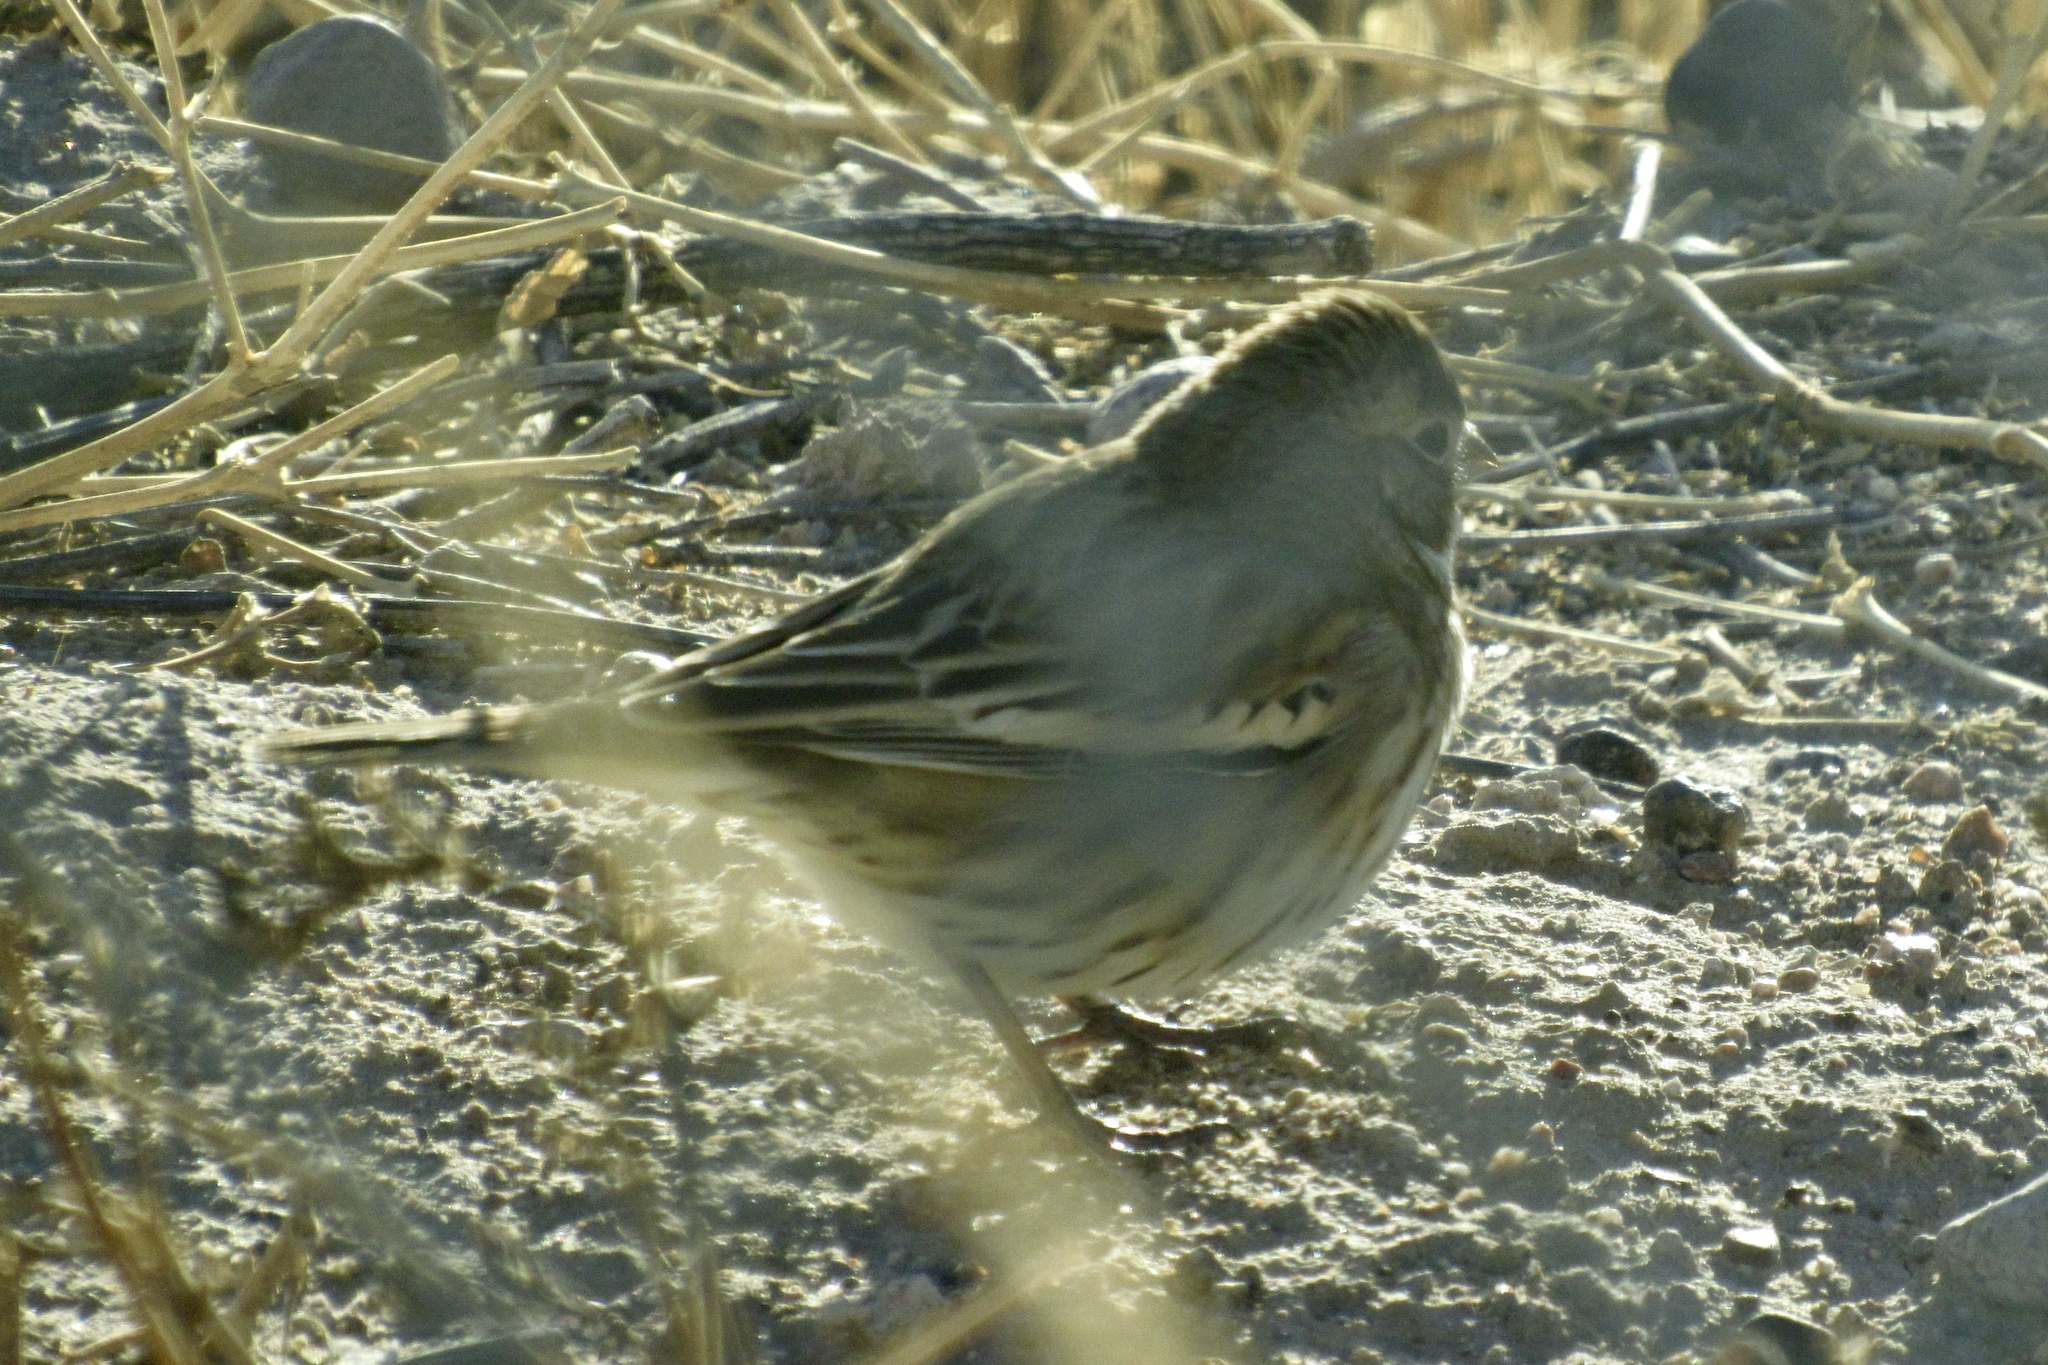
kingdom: Animalia
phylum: Chordata
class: Aves
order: Passeriformes
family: Passerellidae
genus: Calamospiza
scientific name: Calamospiza melanocorys
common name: Lark bunting
